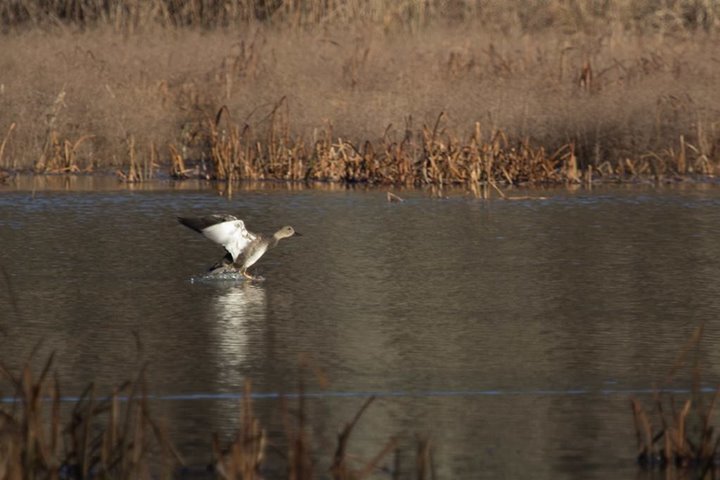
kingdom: Animalia
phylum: Chordata
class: Aves
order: Anseriformes
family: Anatidae
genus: Mareca
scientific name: Mareca strepera
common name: Gadwall
